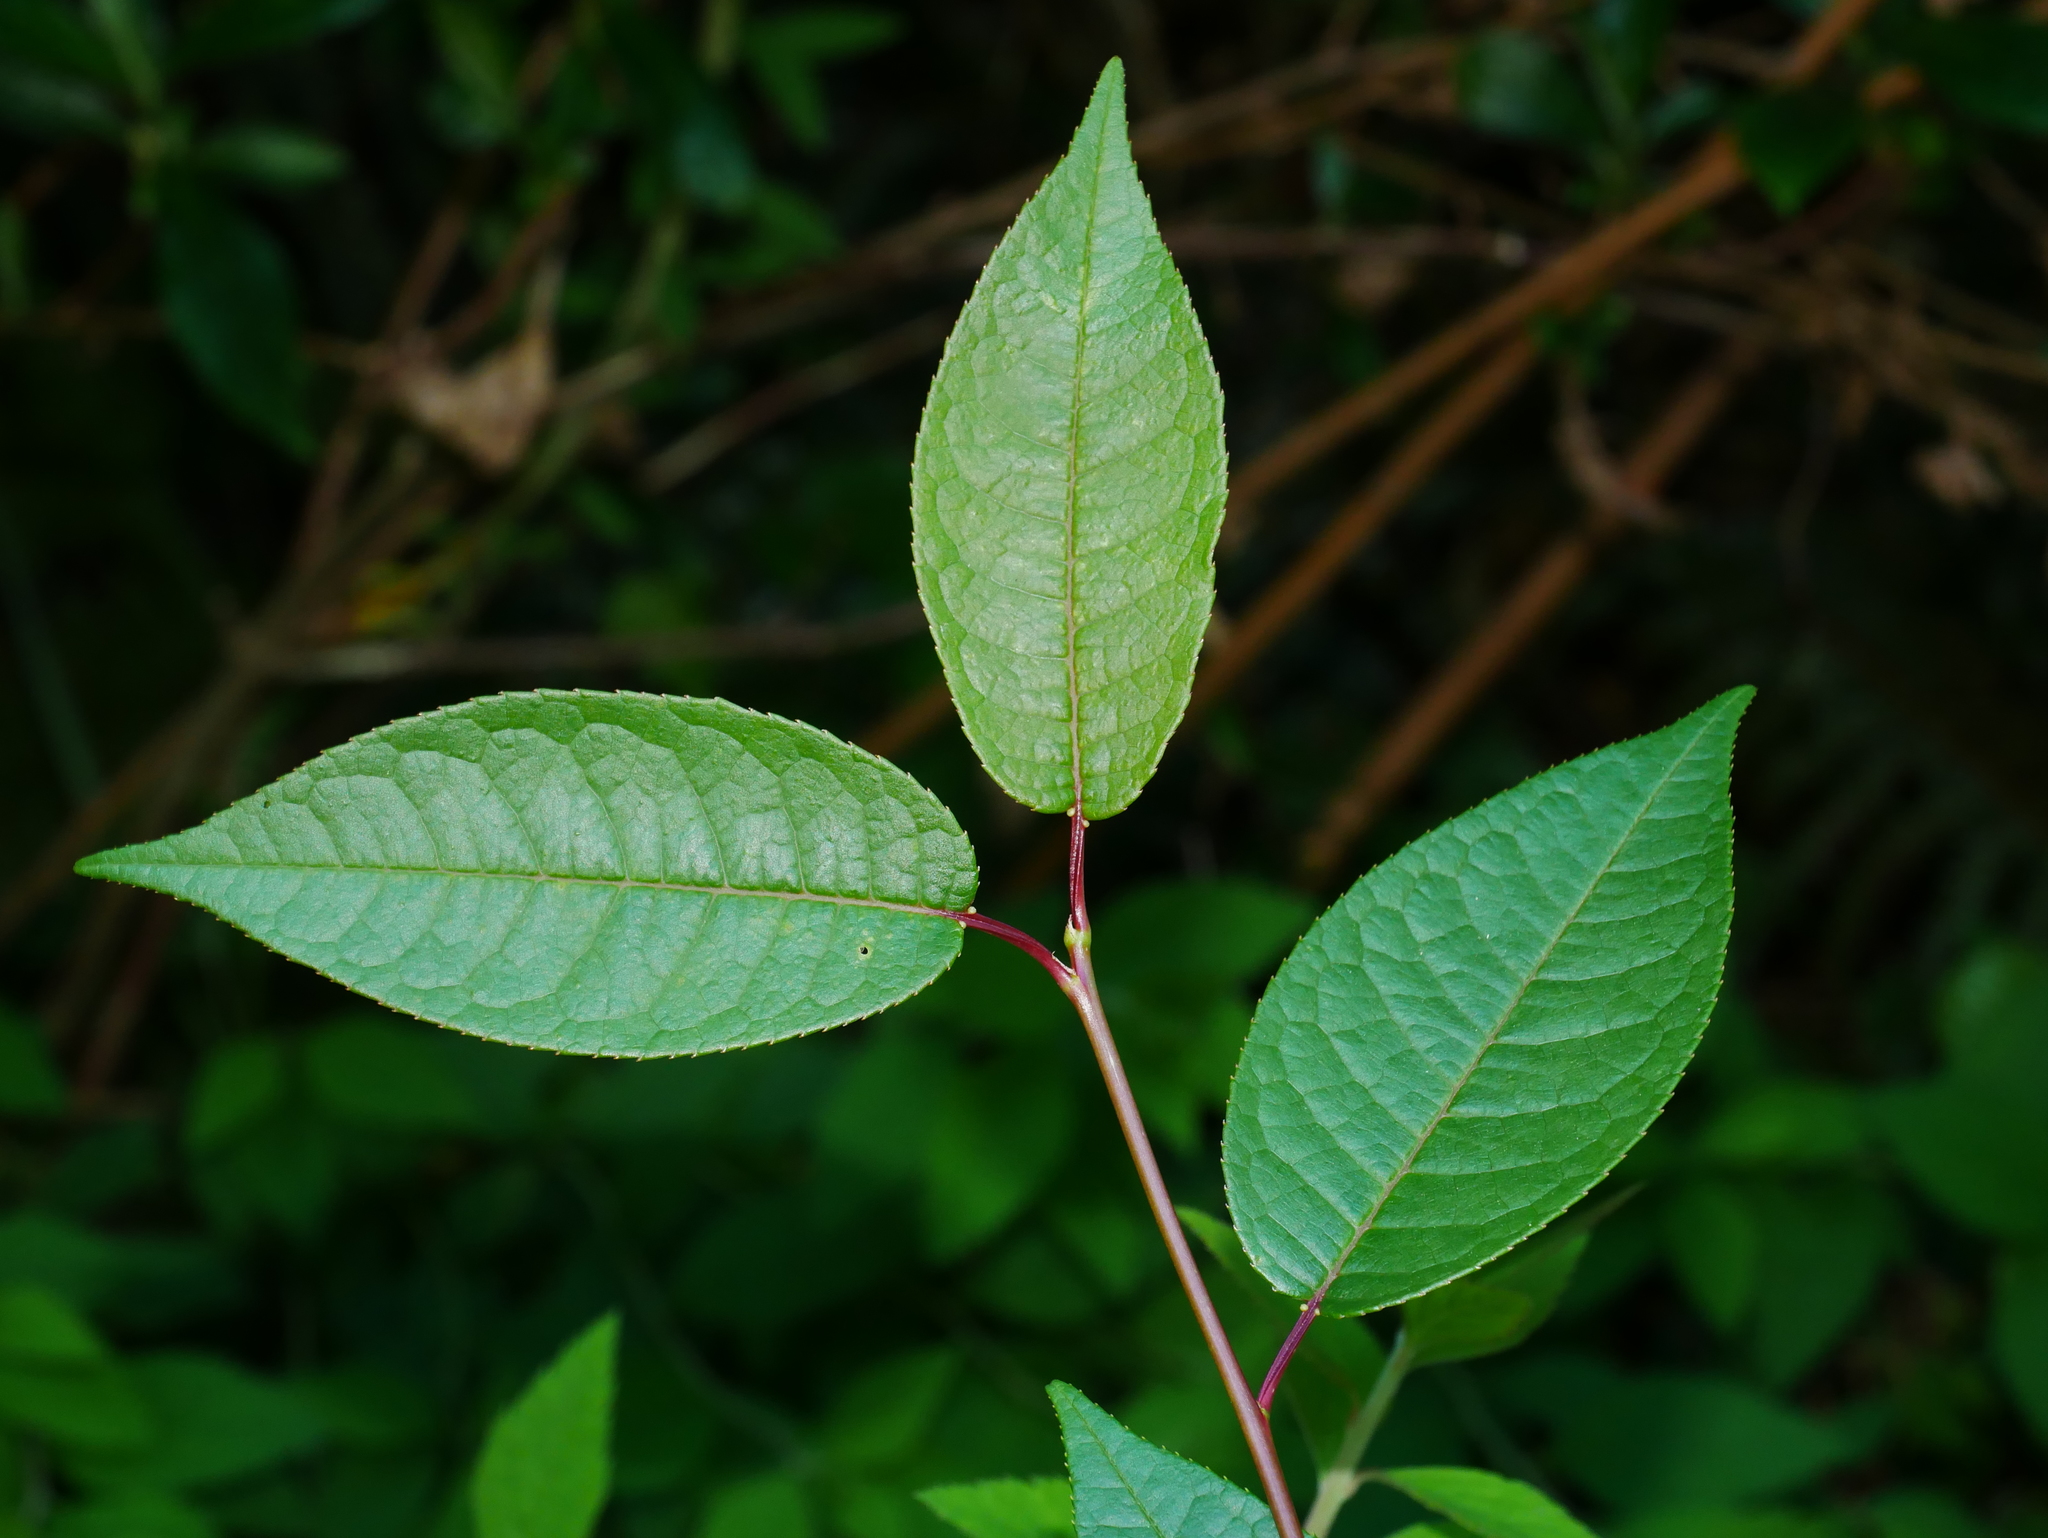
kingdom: Plantae
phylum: Tracheophyta
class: Magnoliopsida
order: Rosales
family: Rosaceae
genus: Prunus
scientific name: Prunus obtusata
